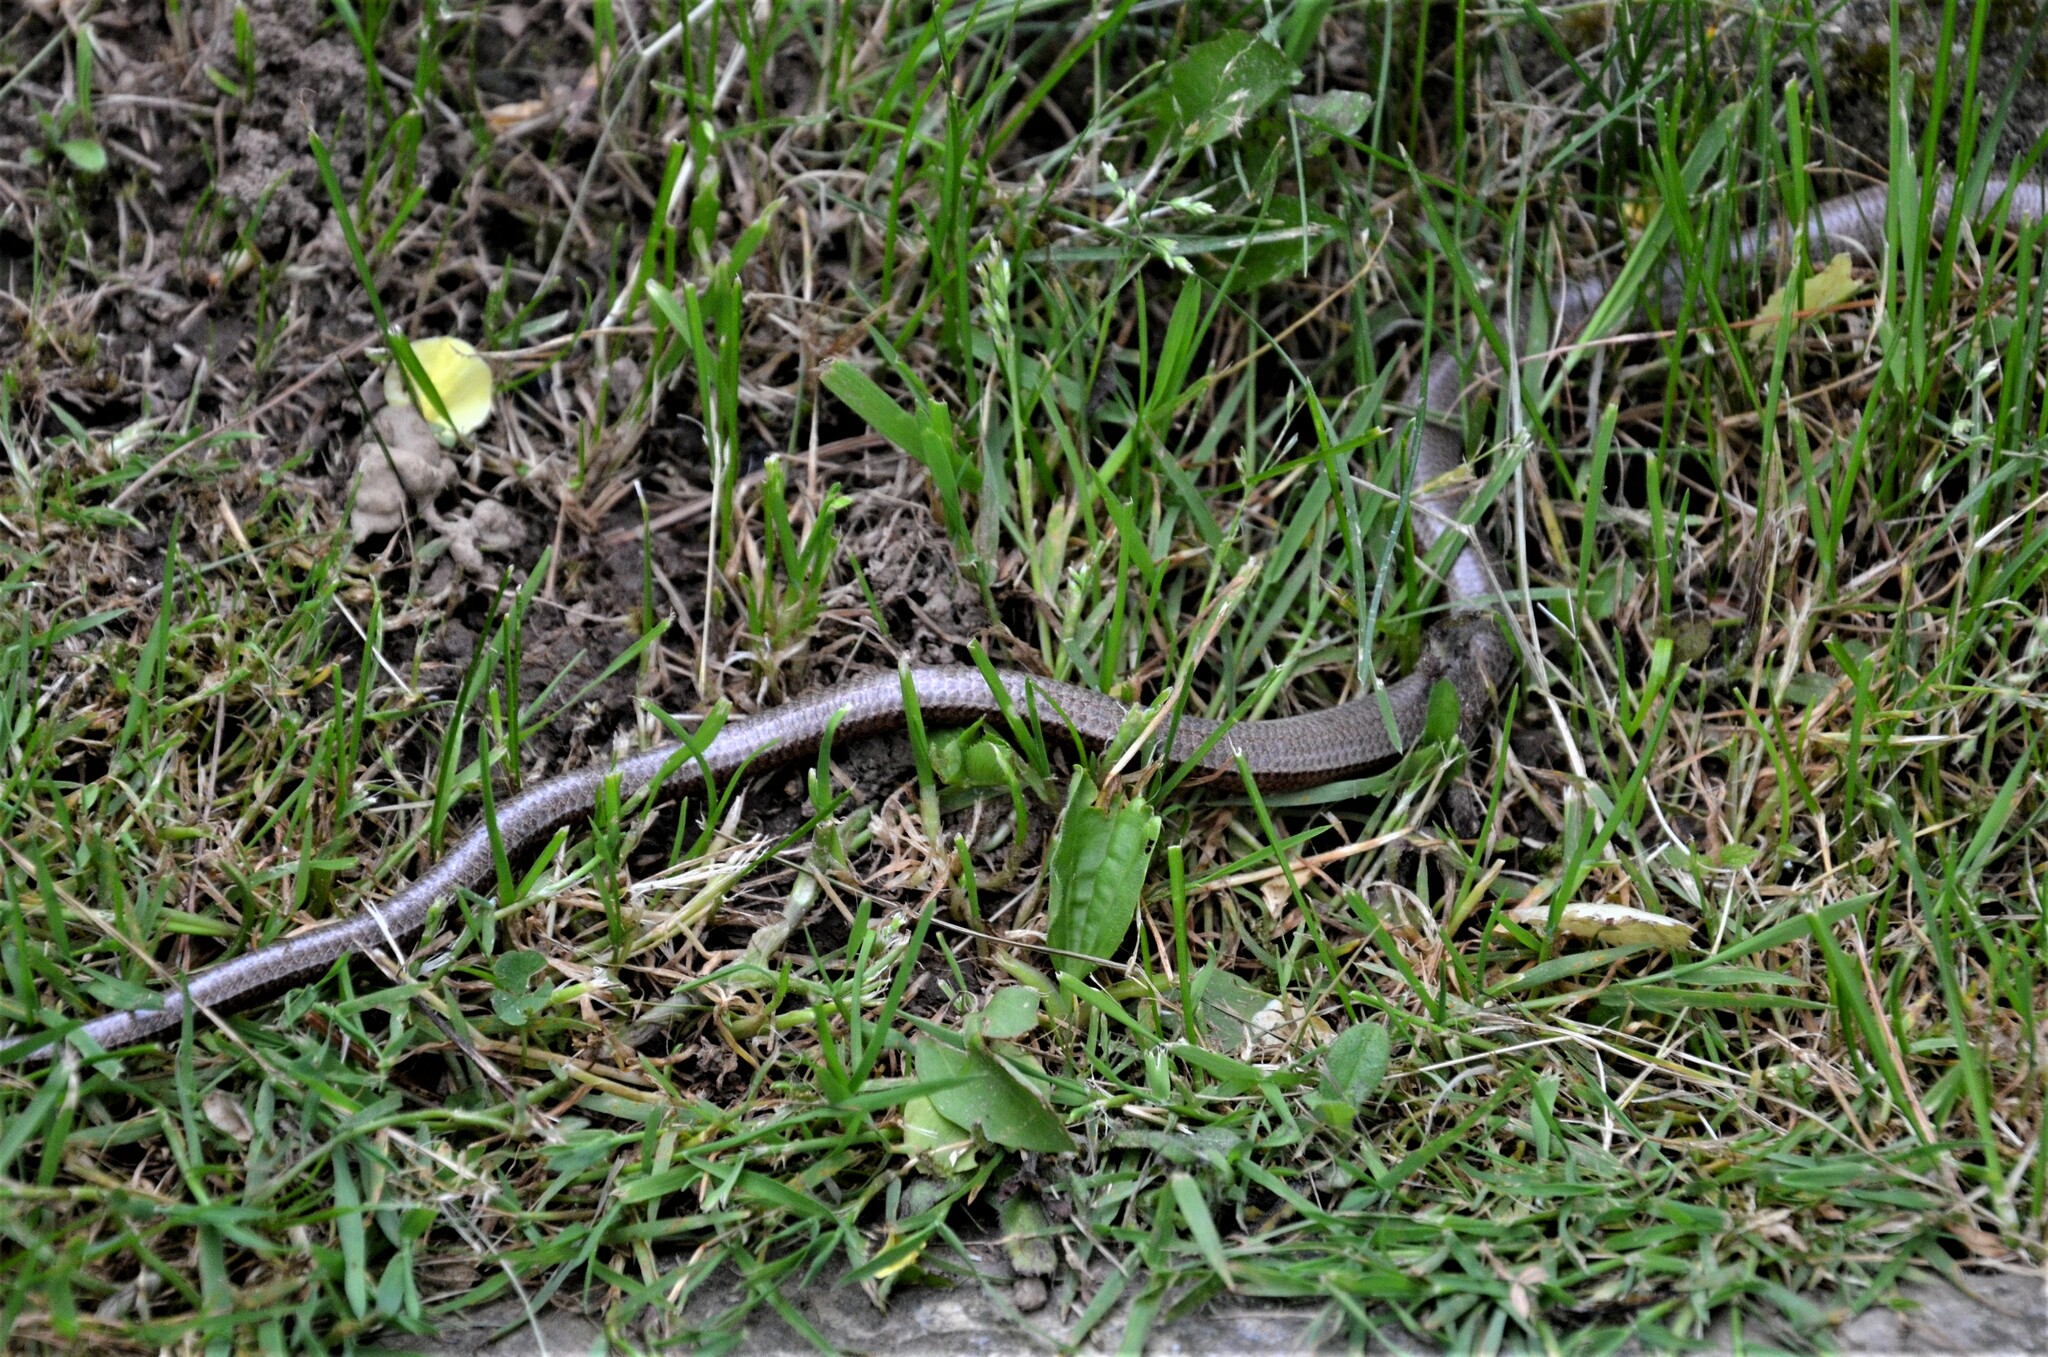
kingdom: Animalia
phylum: Chordata
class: Squamata
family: Anguidae
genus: Anguis
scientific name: Anguis fragilis
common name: Slow worm
